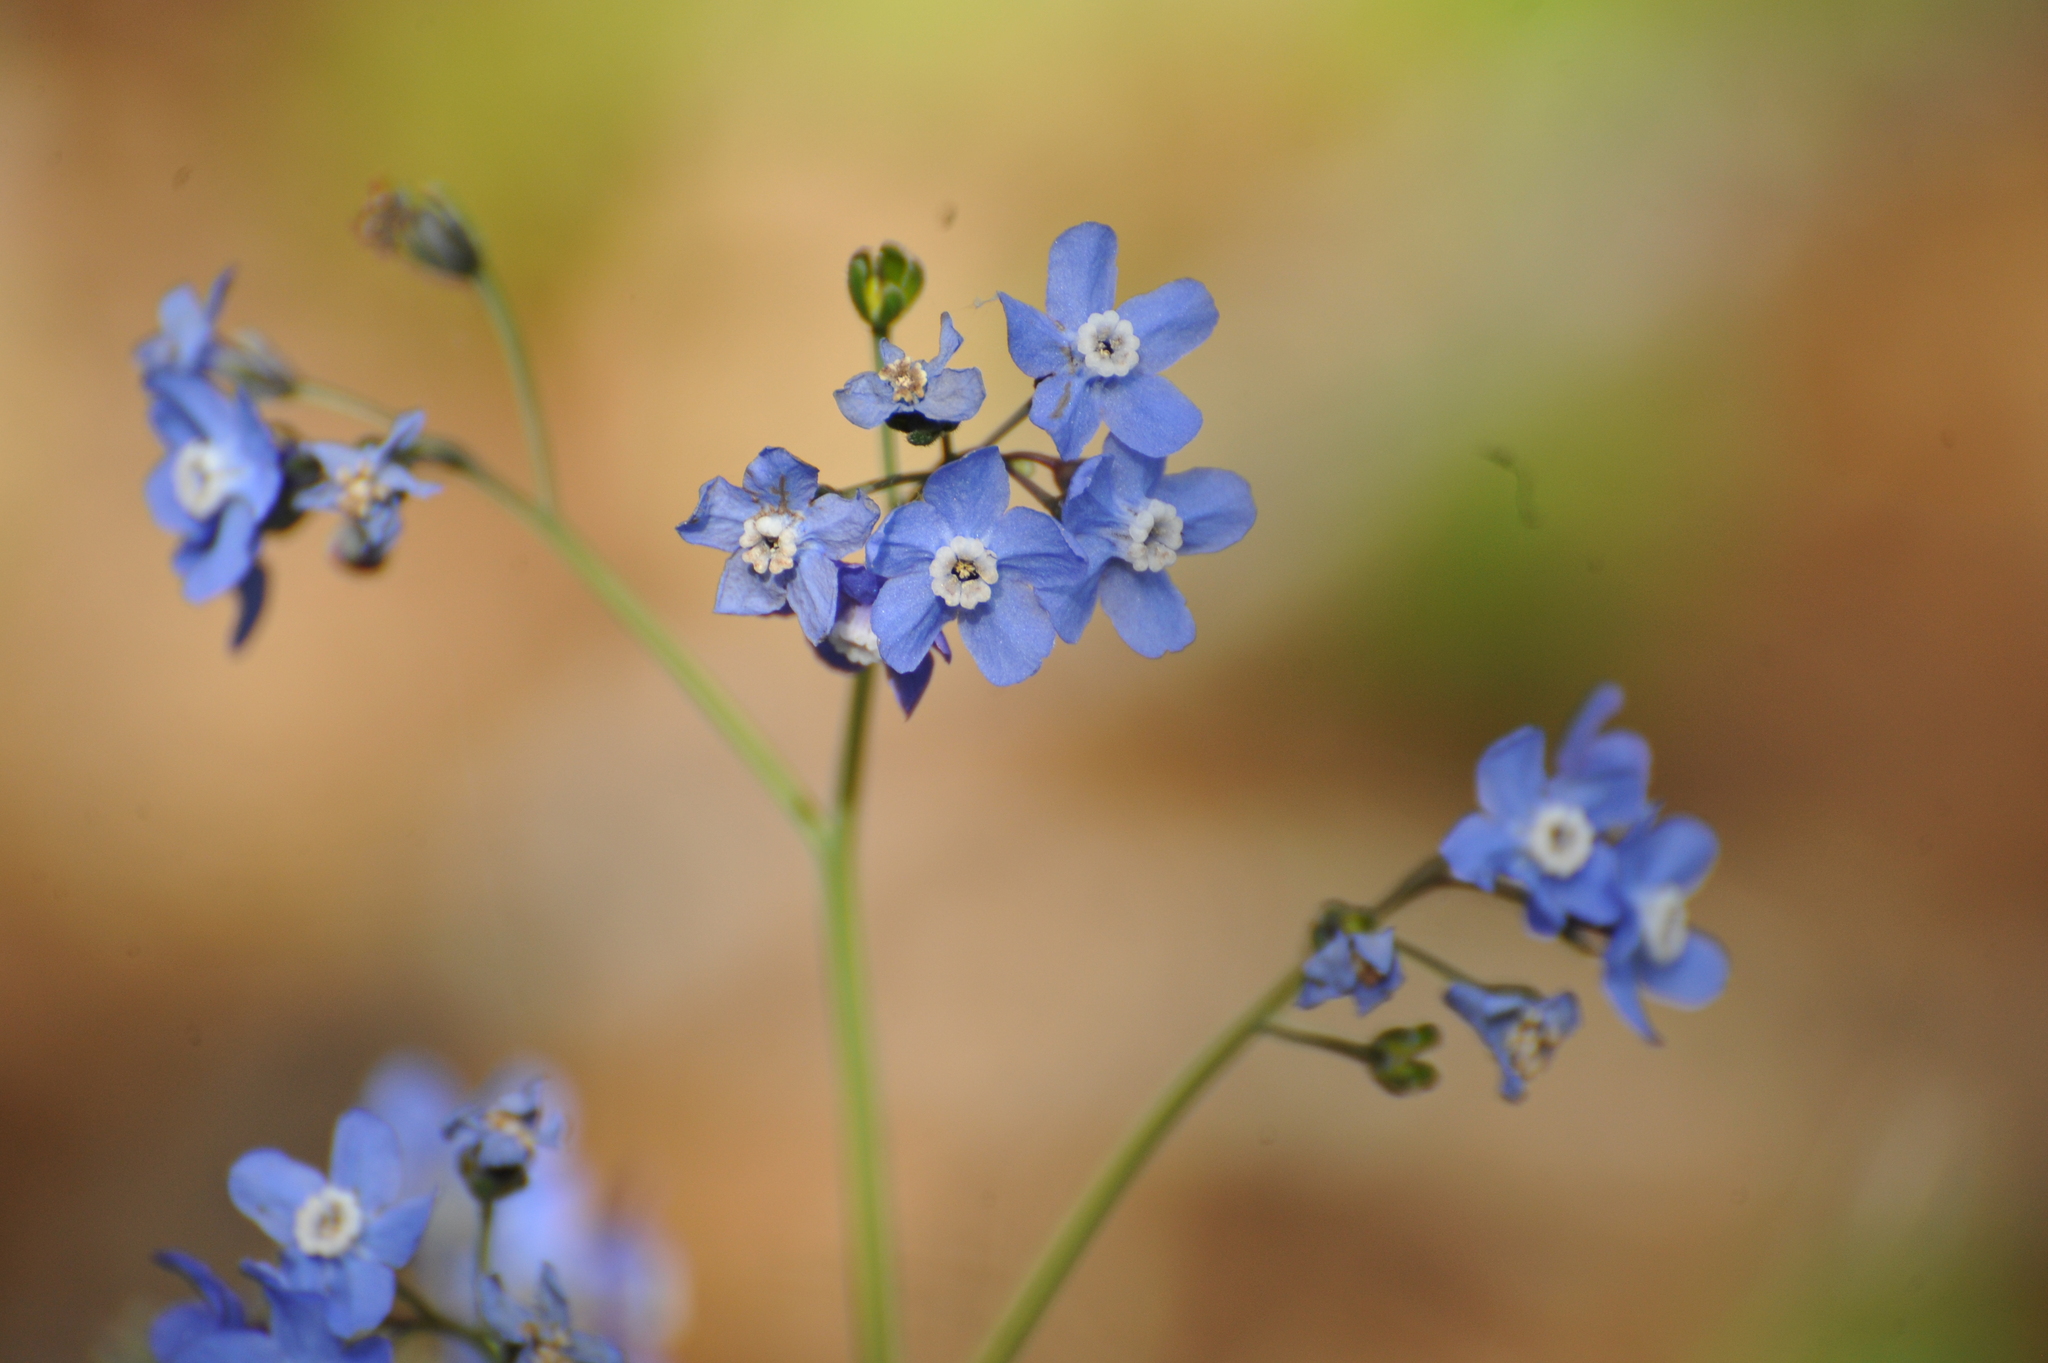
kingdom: Plantae
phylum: Tracheophyta
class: Magnoliopsida
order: Boraginales
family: Boraginaceae
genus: Adelinia
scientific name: Adelinia grande
